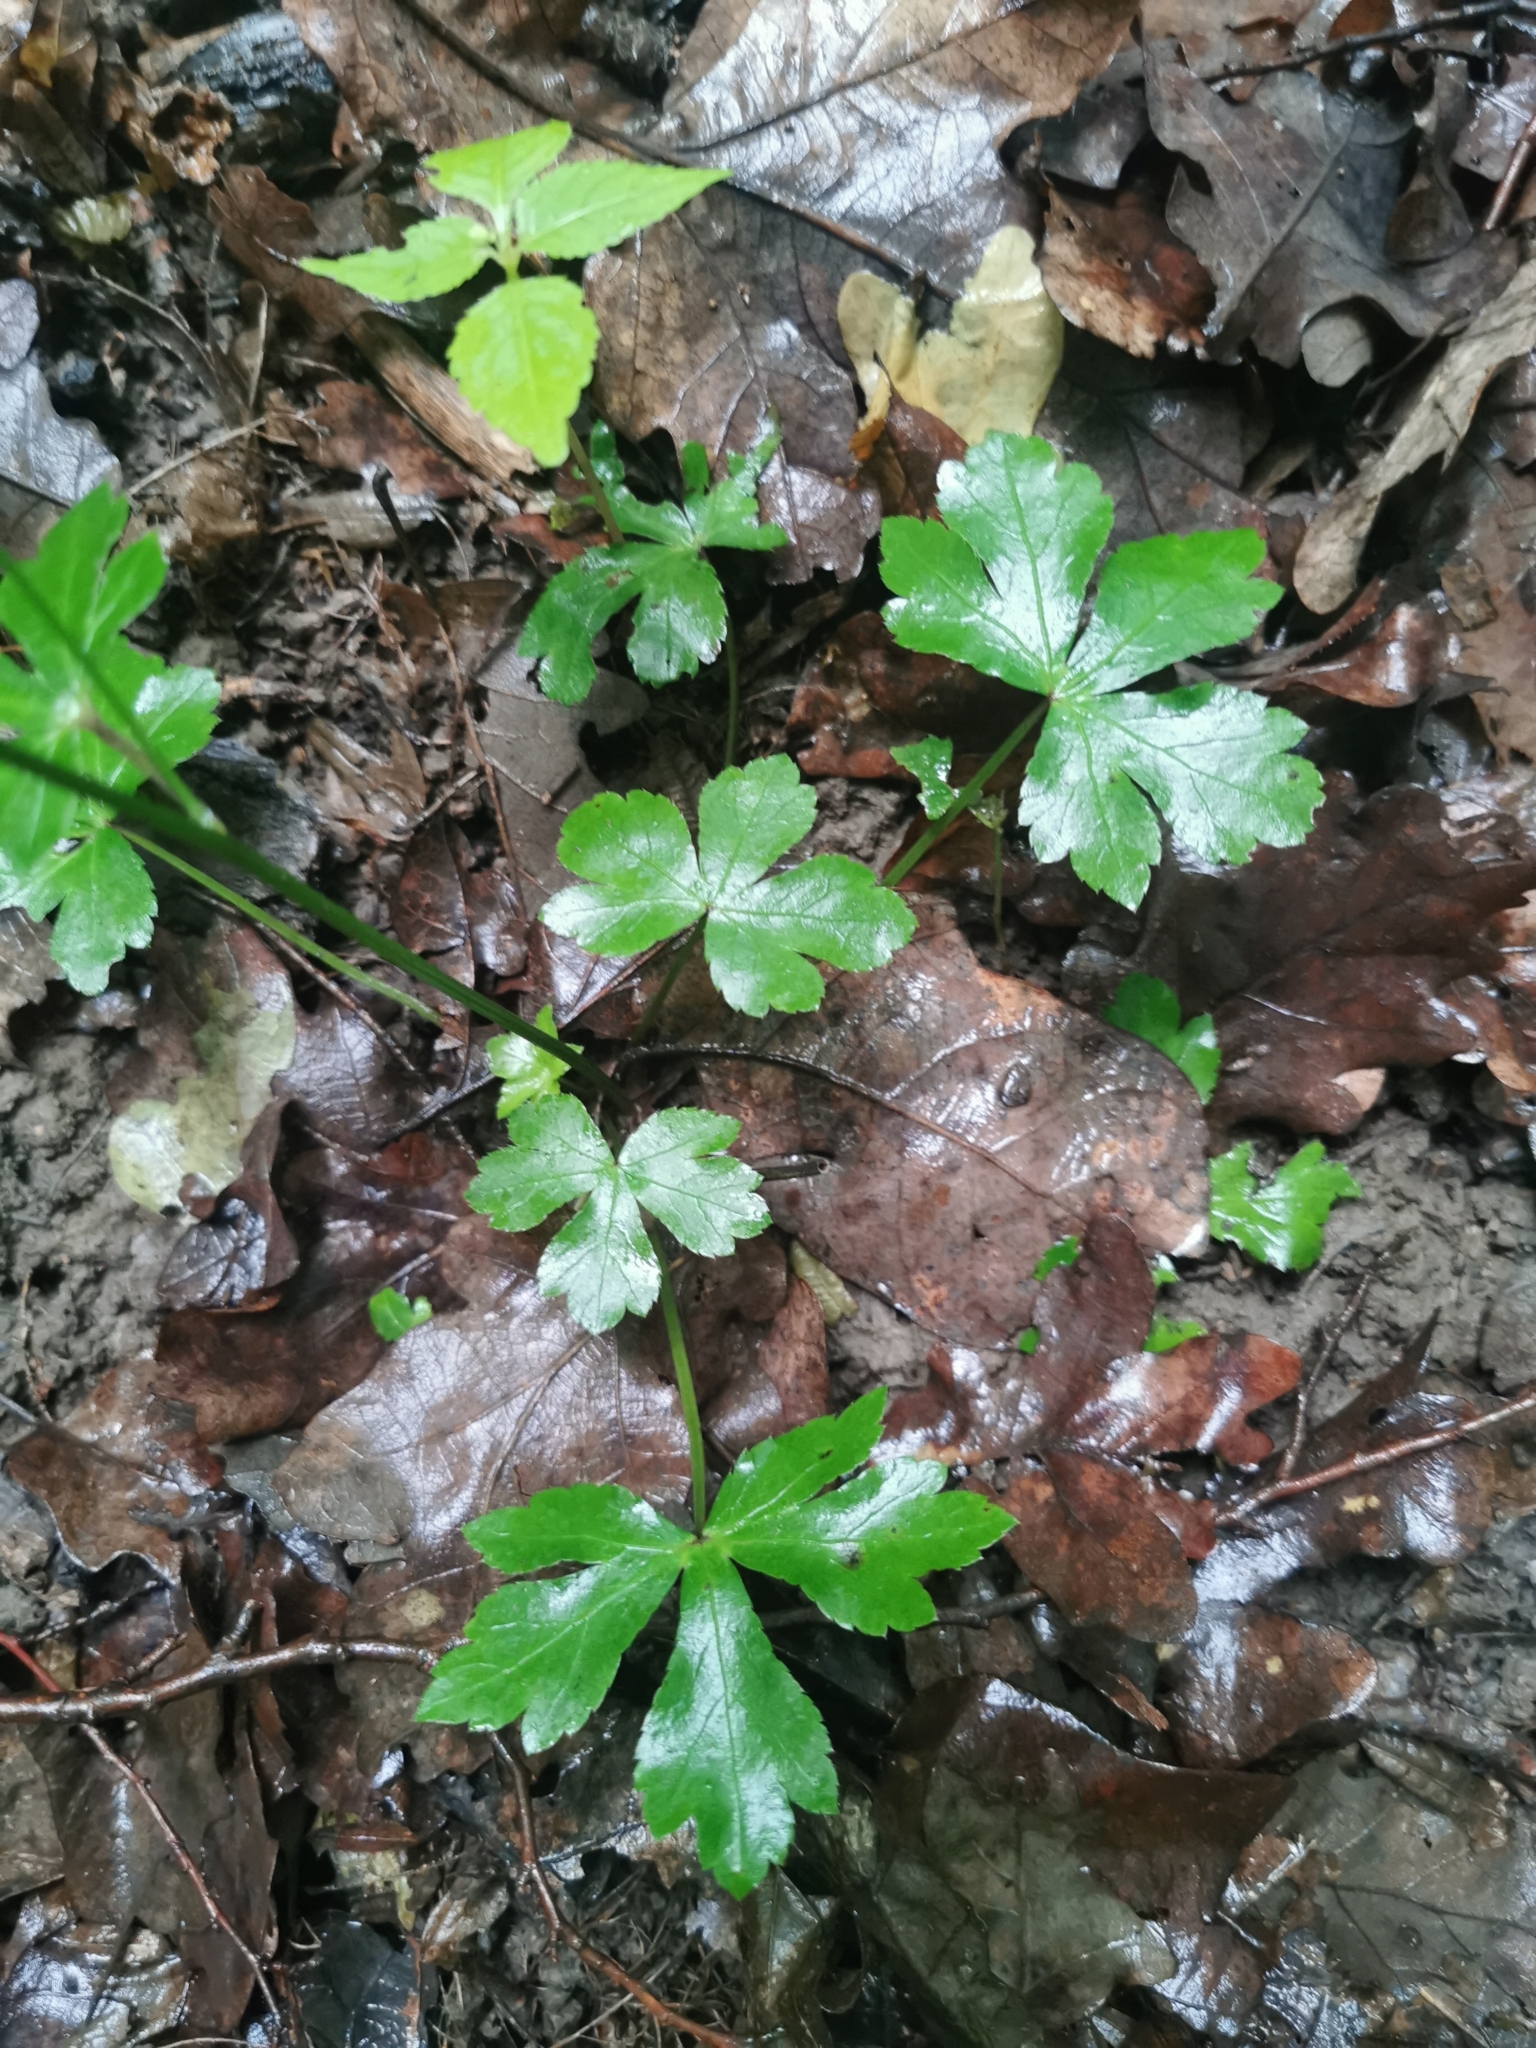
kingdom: Plantae
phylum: Tracheophyta
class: Magnoliopsida
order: Apiales
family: Apiaceae
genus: Sanicula
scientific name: Sanicula europaea
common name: Sanicle
